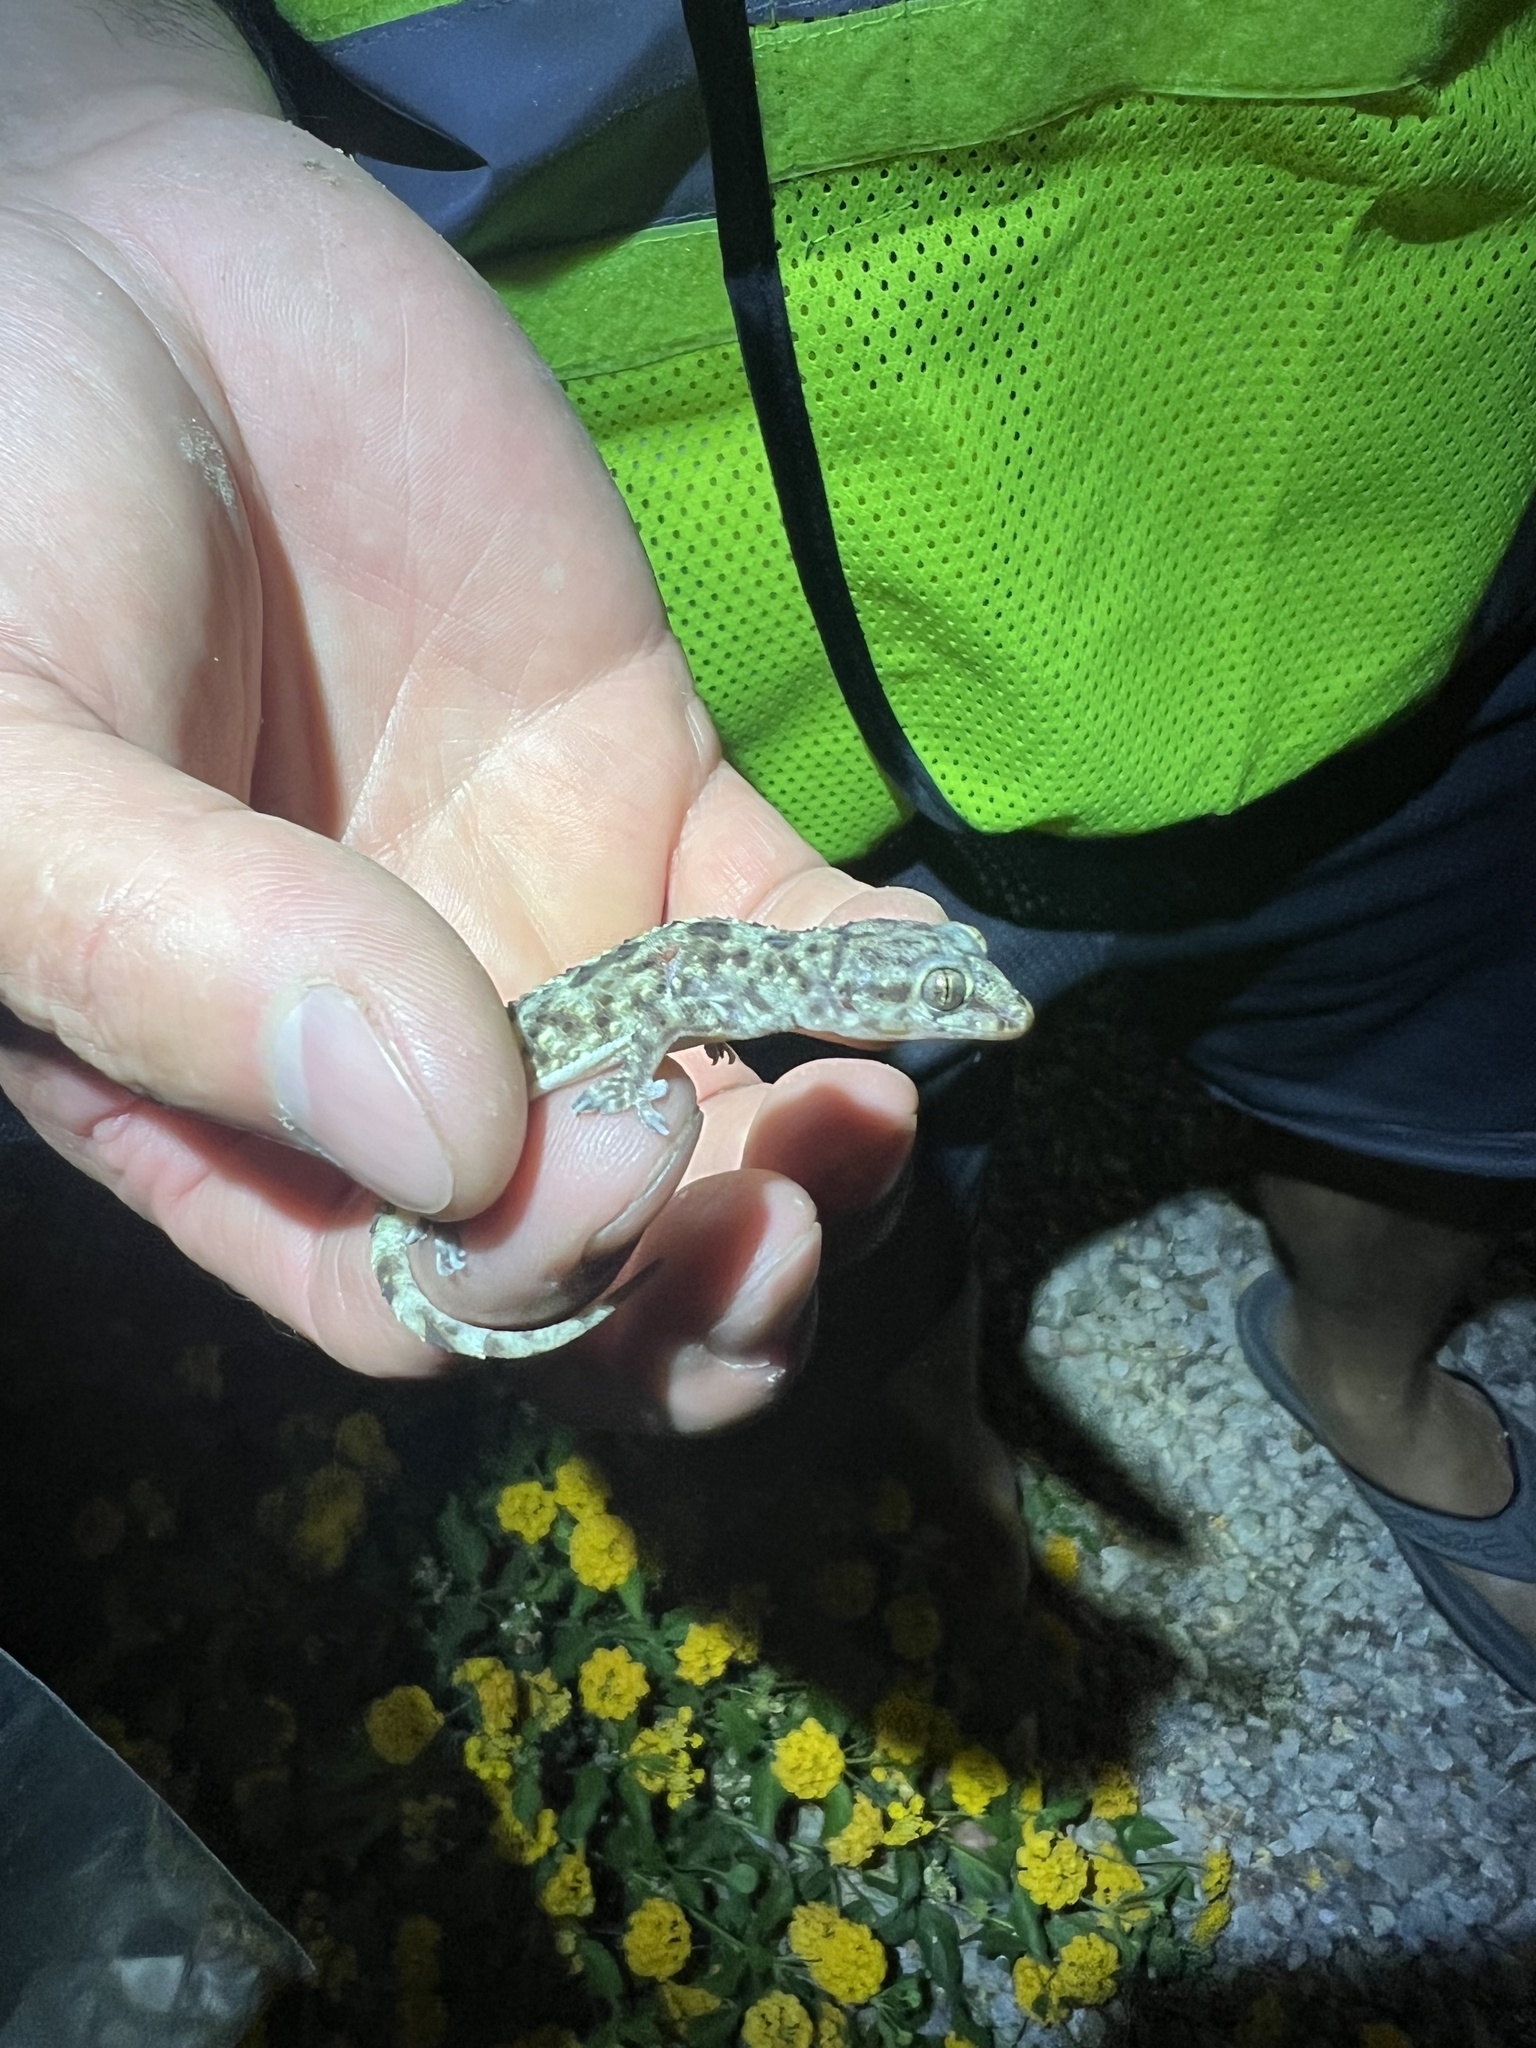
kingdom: Animalia
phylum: Chordata
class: Squamata
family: Gekkonidae
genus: Hemidactylus
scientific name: Hemidactylus turcicus
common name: Turkish gecko
